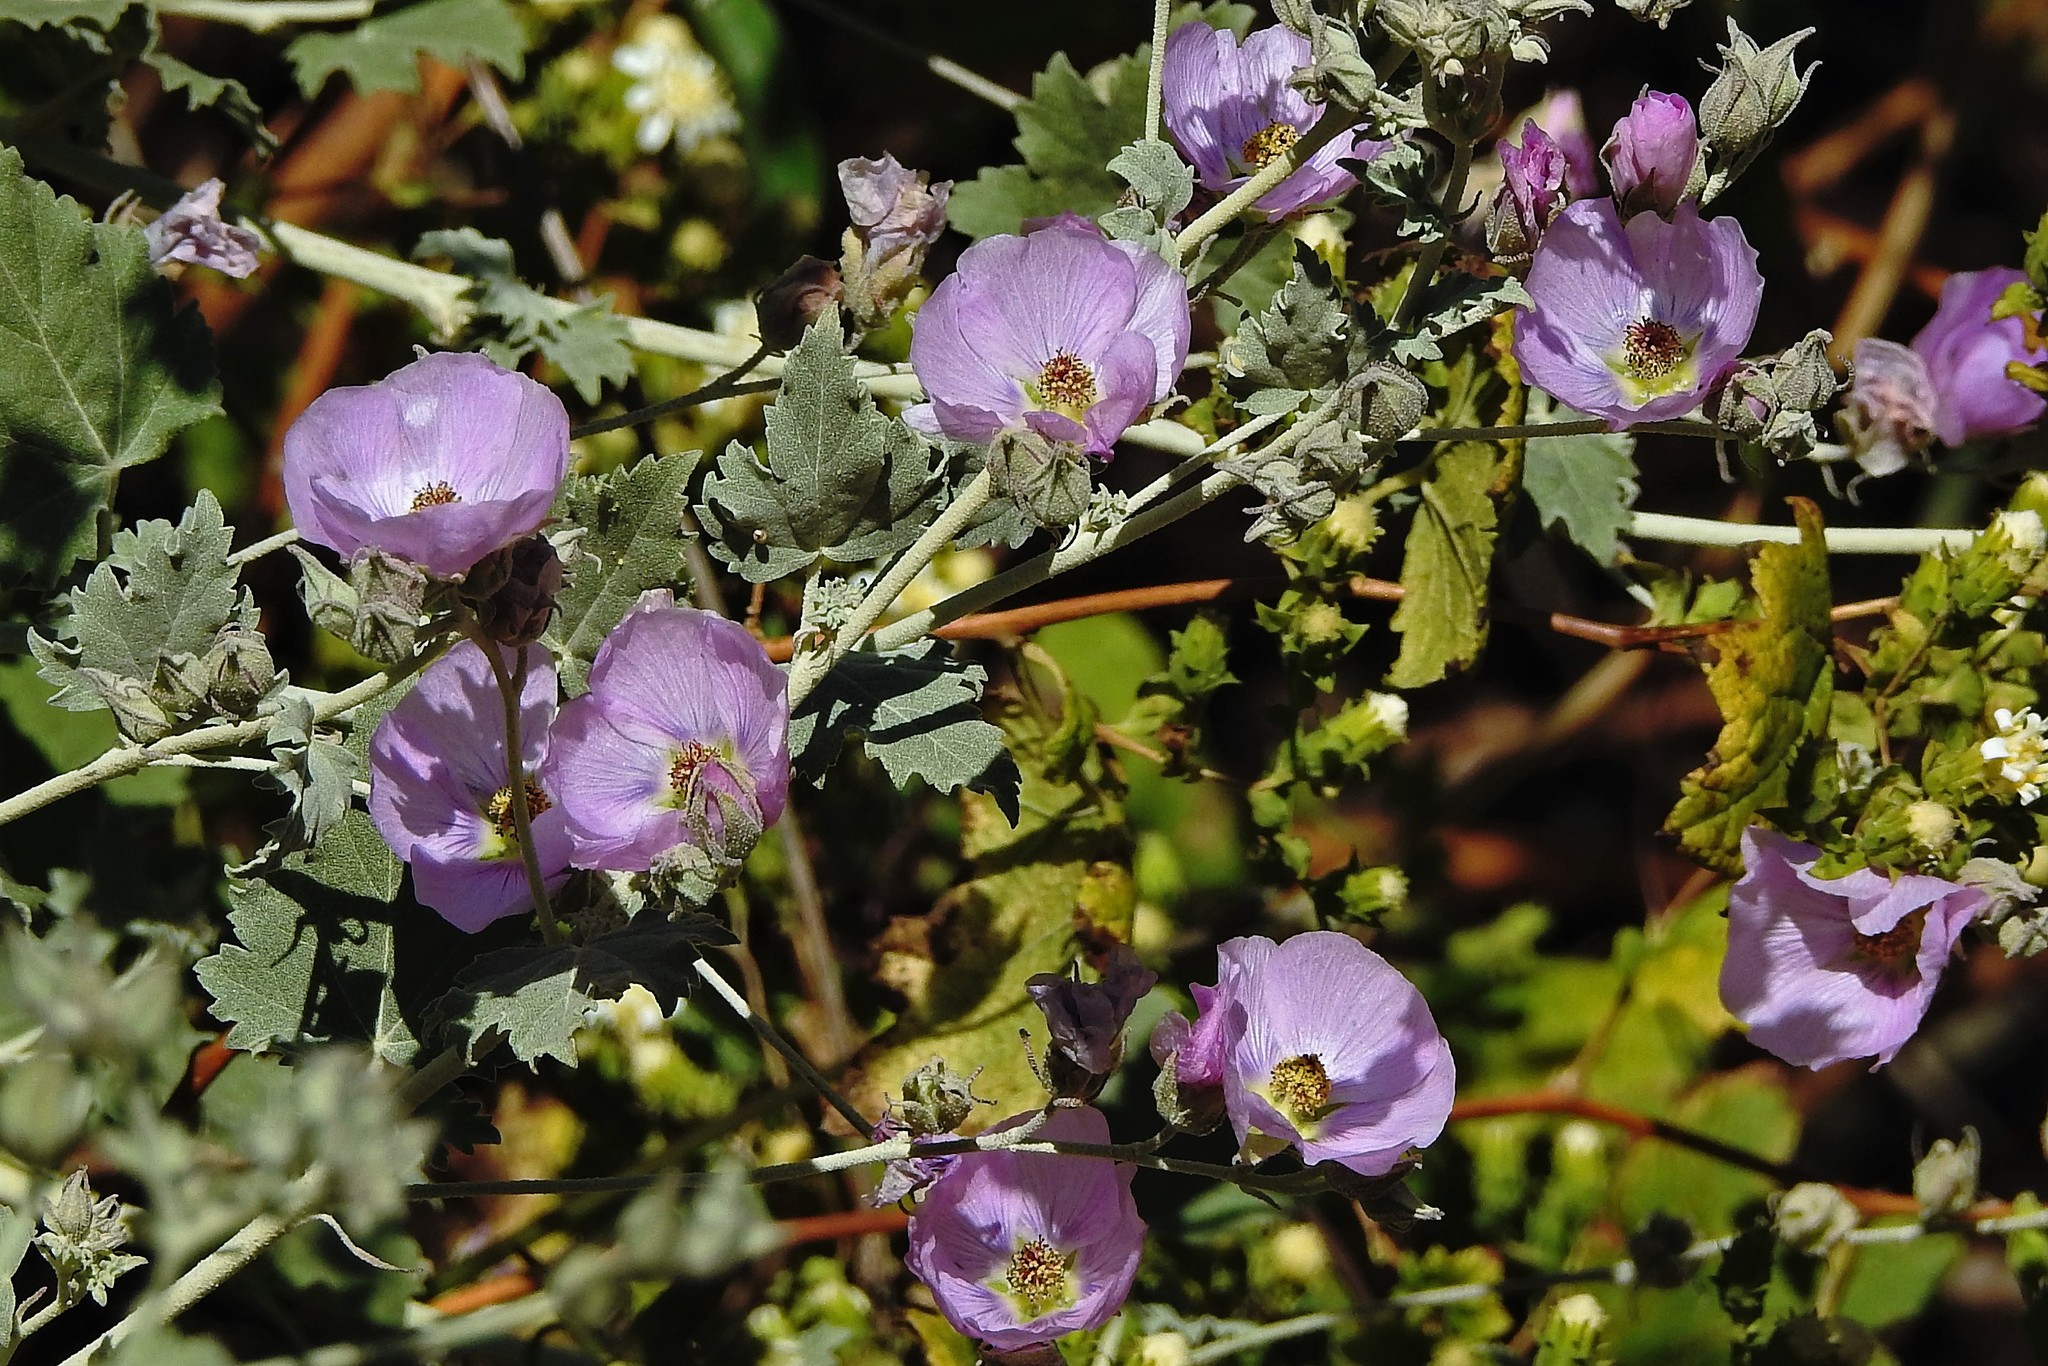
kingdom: Plantae
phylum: Tracheophyta
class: Magnoliopsida
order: Malvales
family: Malvaceae
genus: Sphaeralcea
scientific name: Sphaeralcea brevipes
